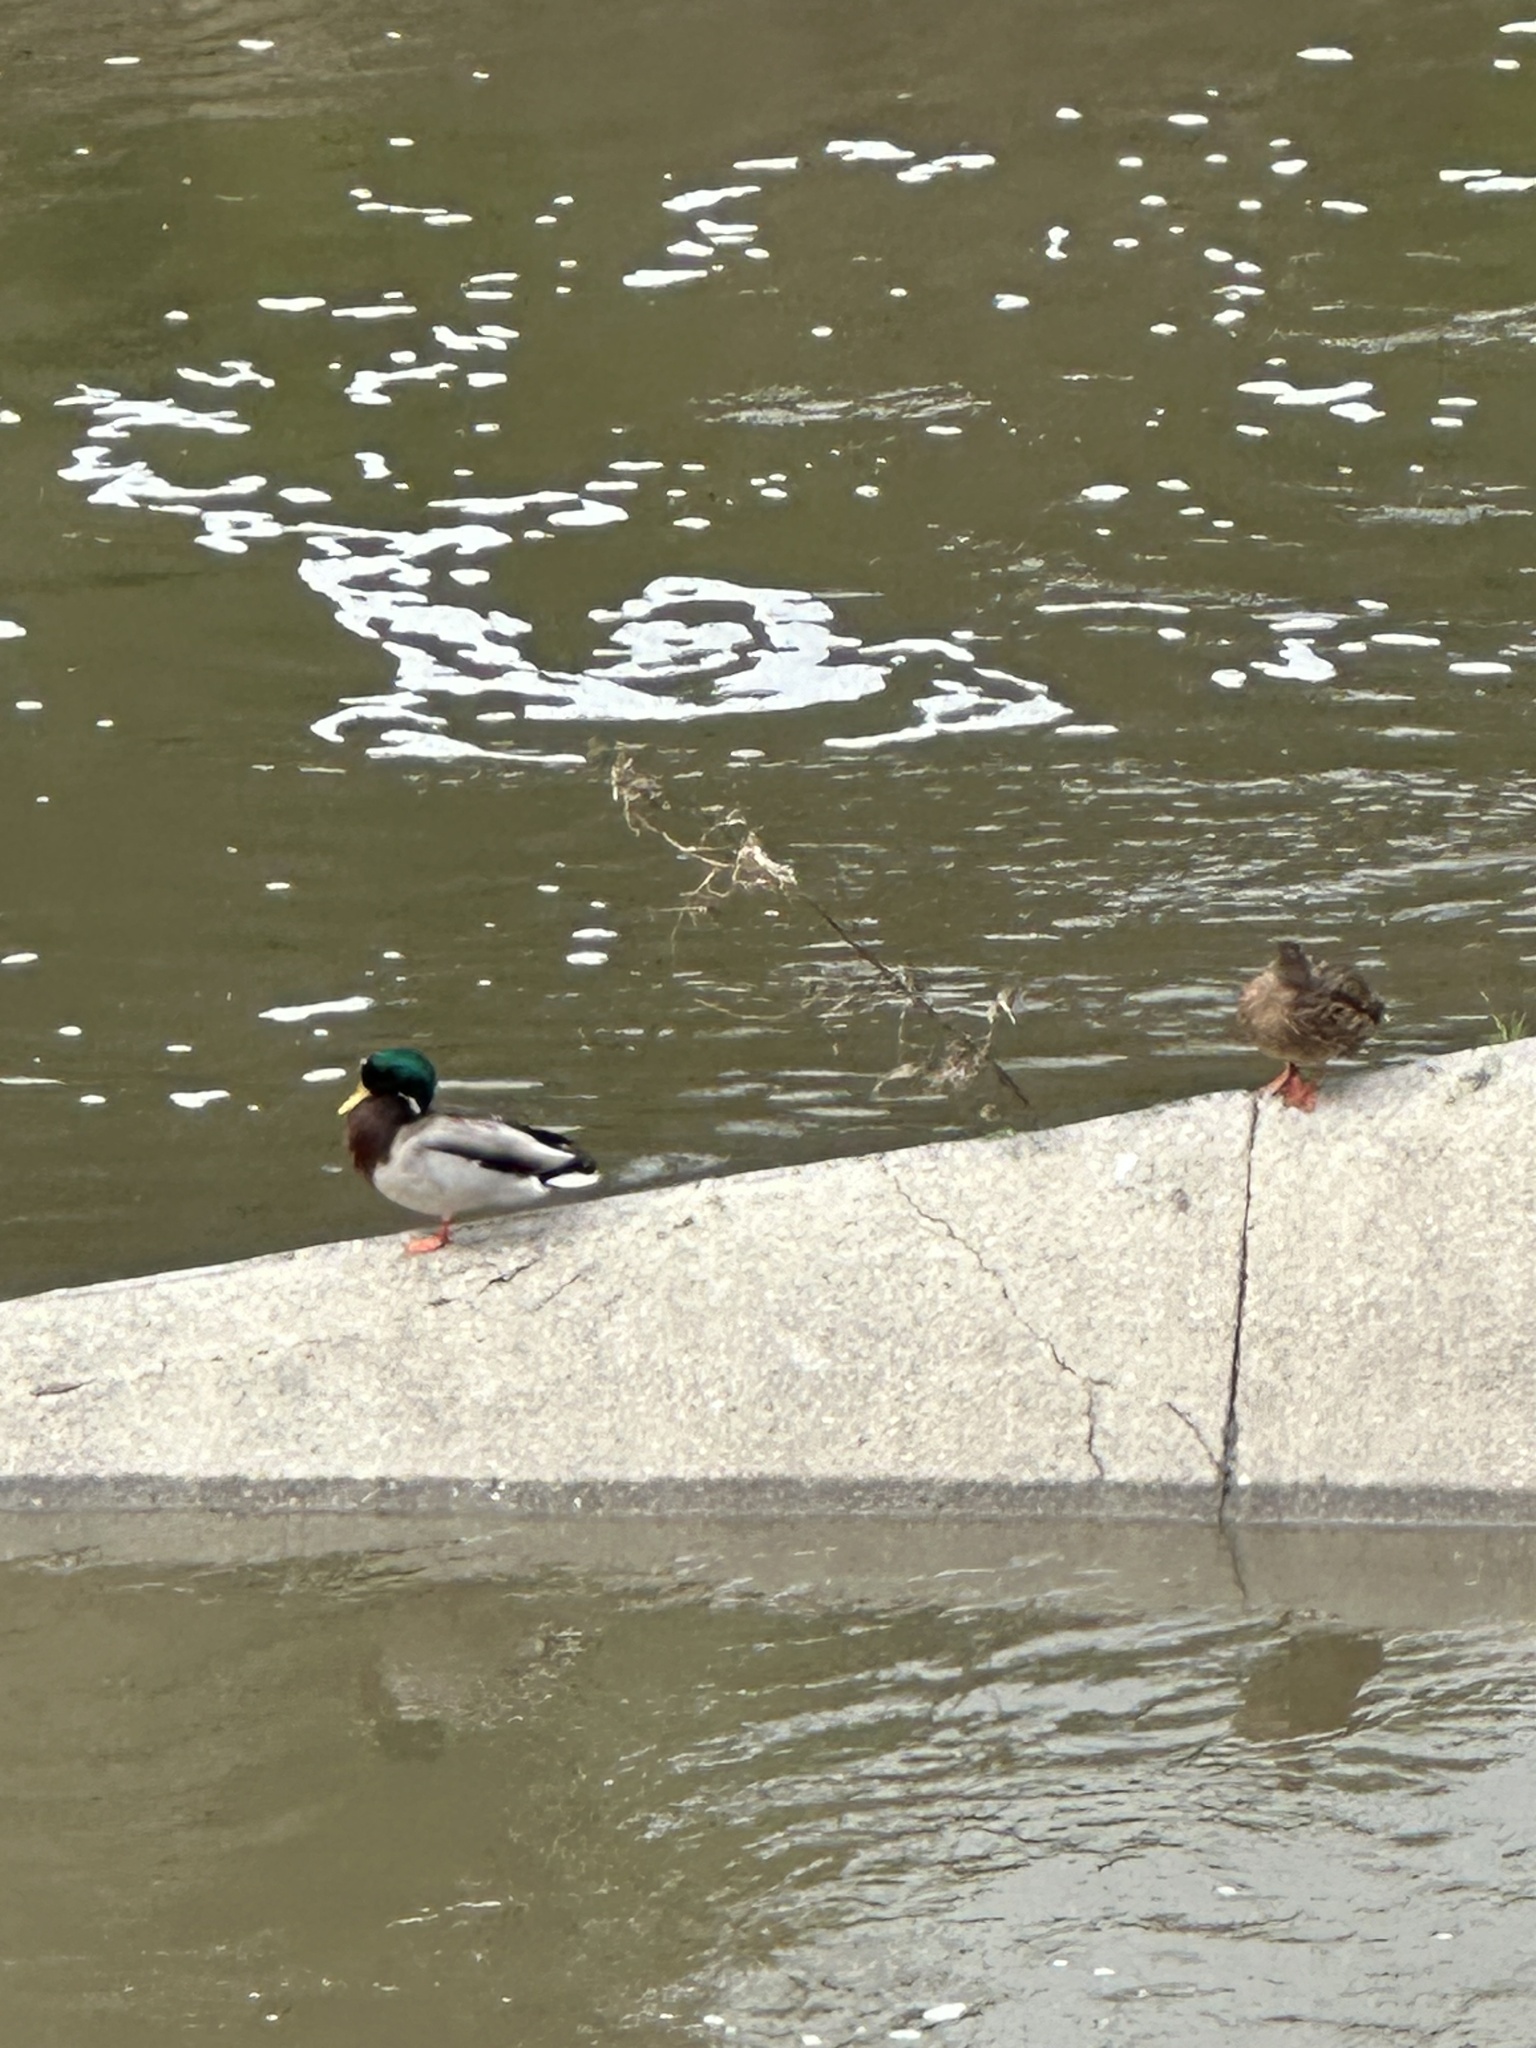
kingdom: Animalia
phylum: Chordata
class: Aves
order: Anseriformes
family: Anatidae
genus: Anas
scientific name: Anas platyrhynchos
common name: Mallard
